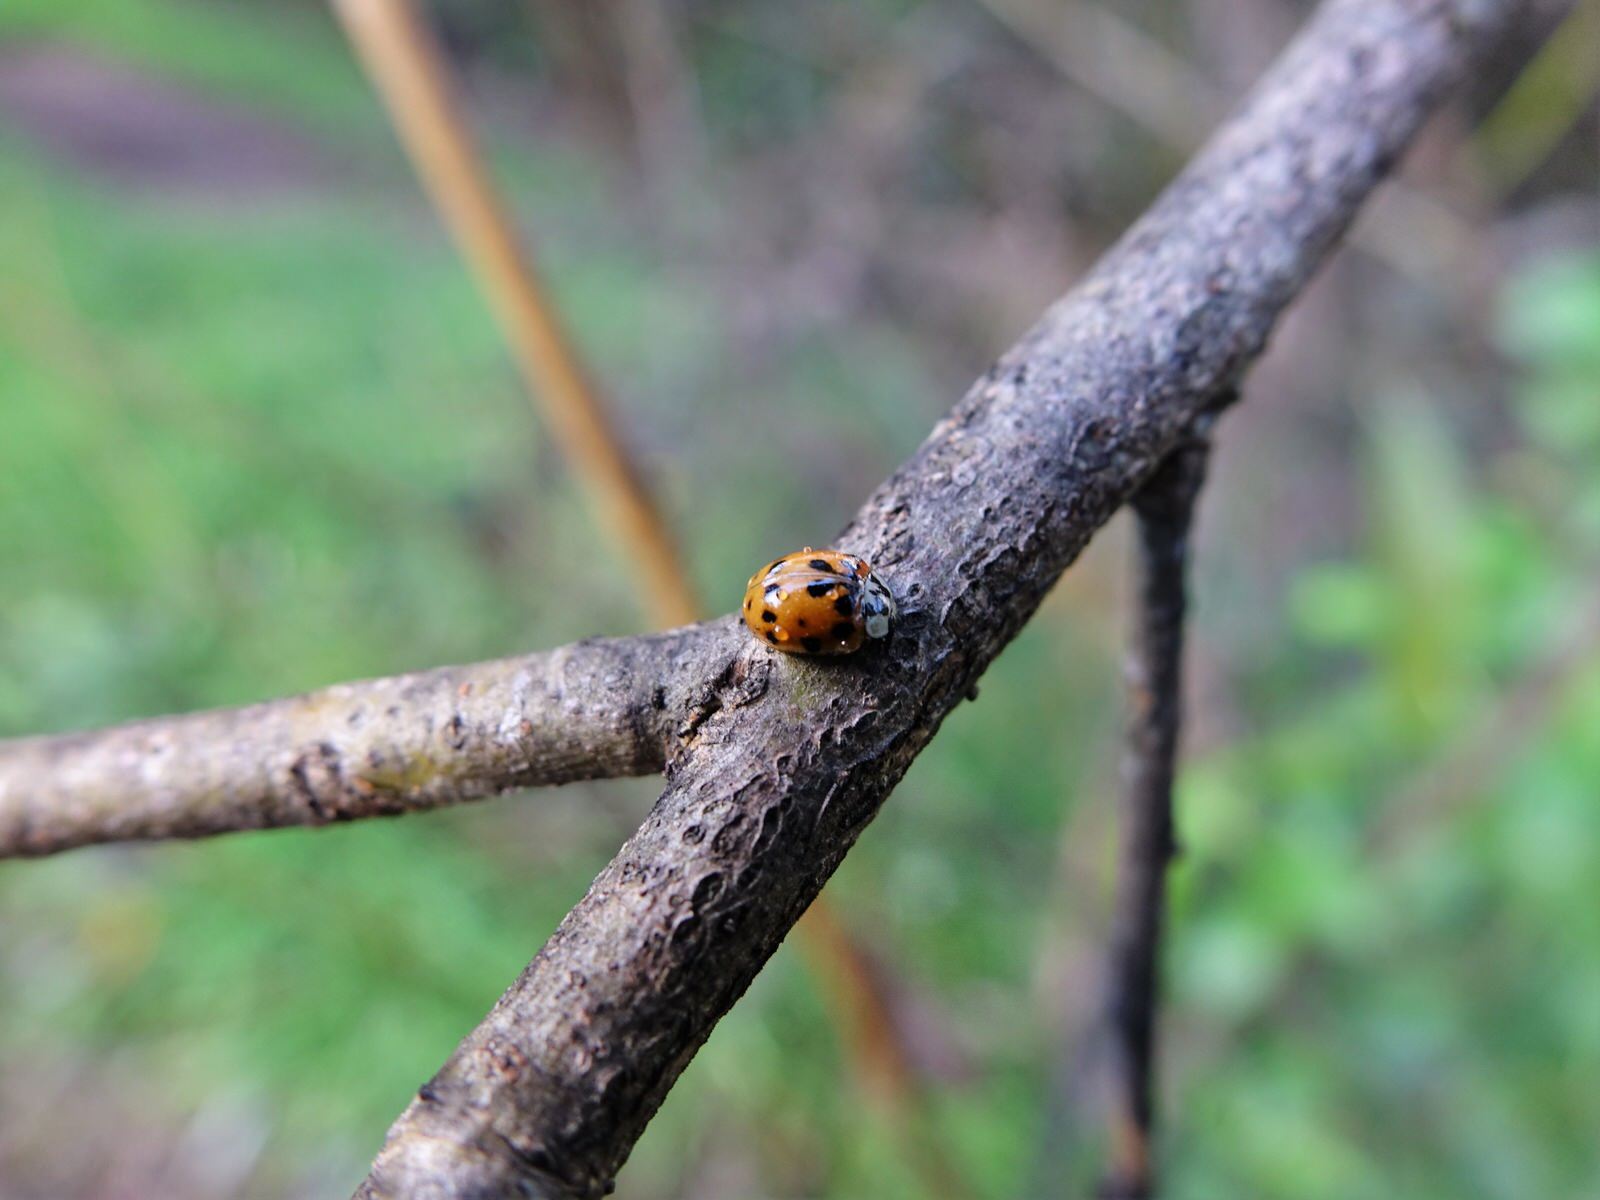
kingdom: Animalia
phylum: Arthropoda
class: Insecta
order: Coleoptera
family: Coccinellidae
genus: Harmonia
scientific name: Harmonia axyridis
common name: Harlequin ladybird
